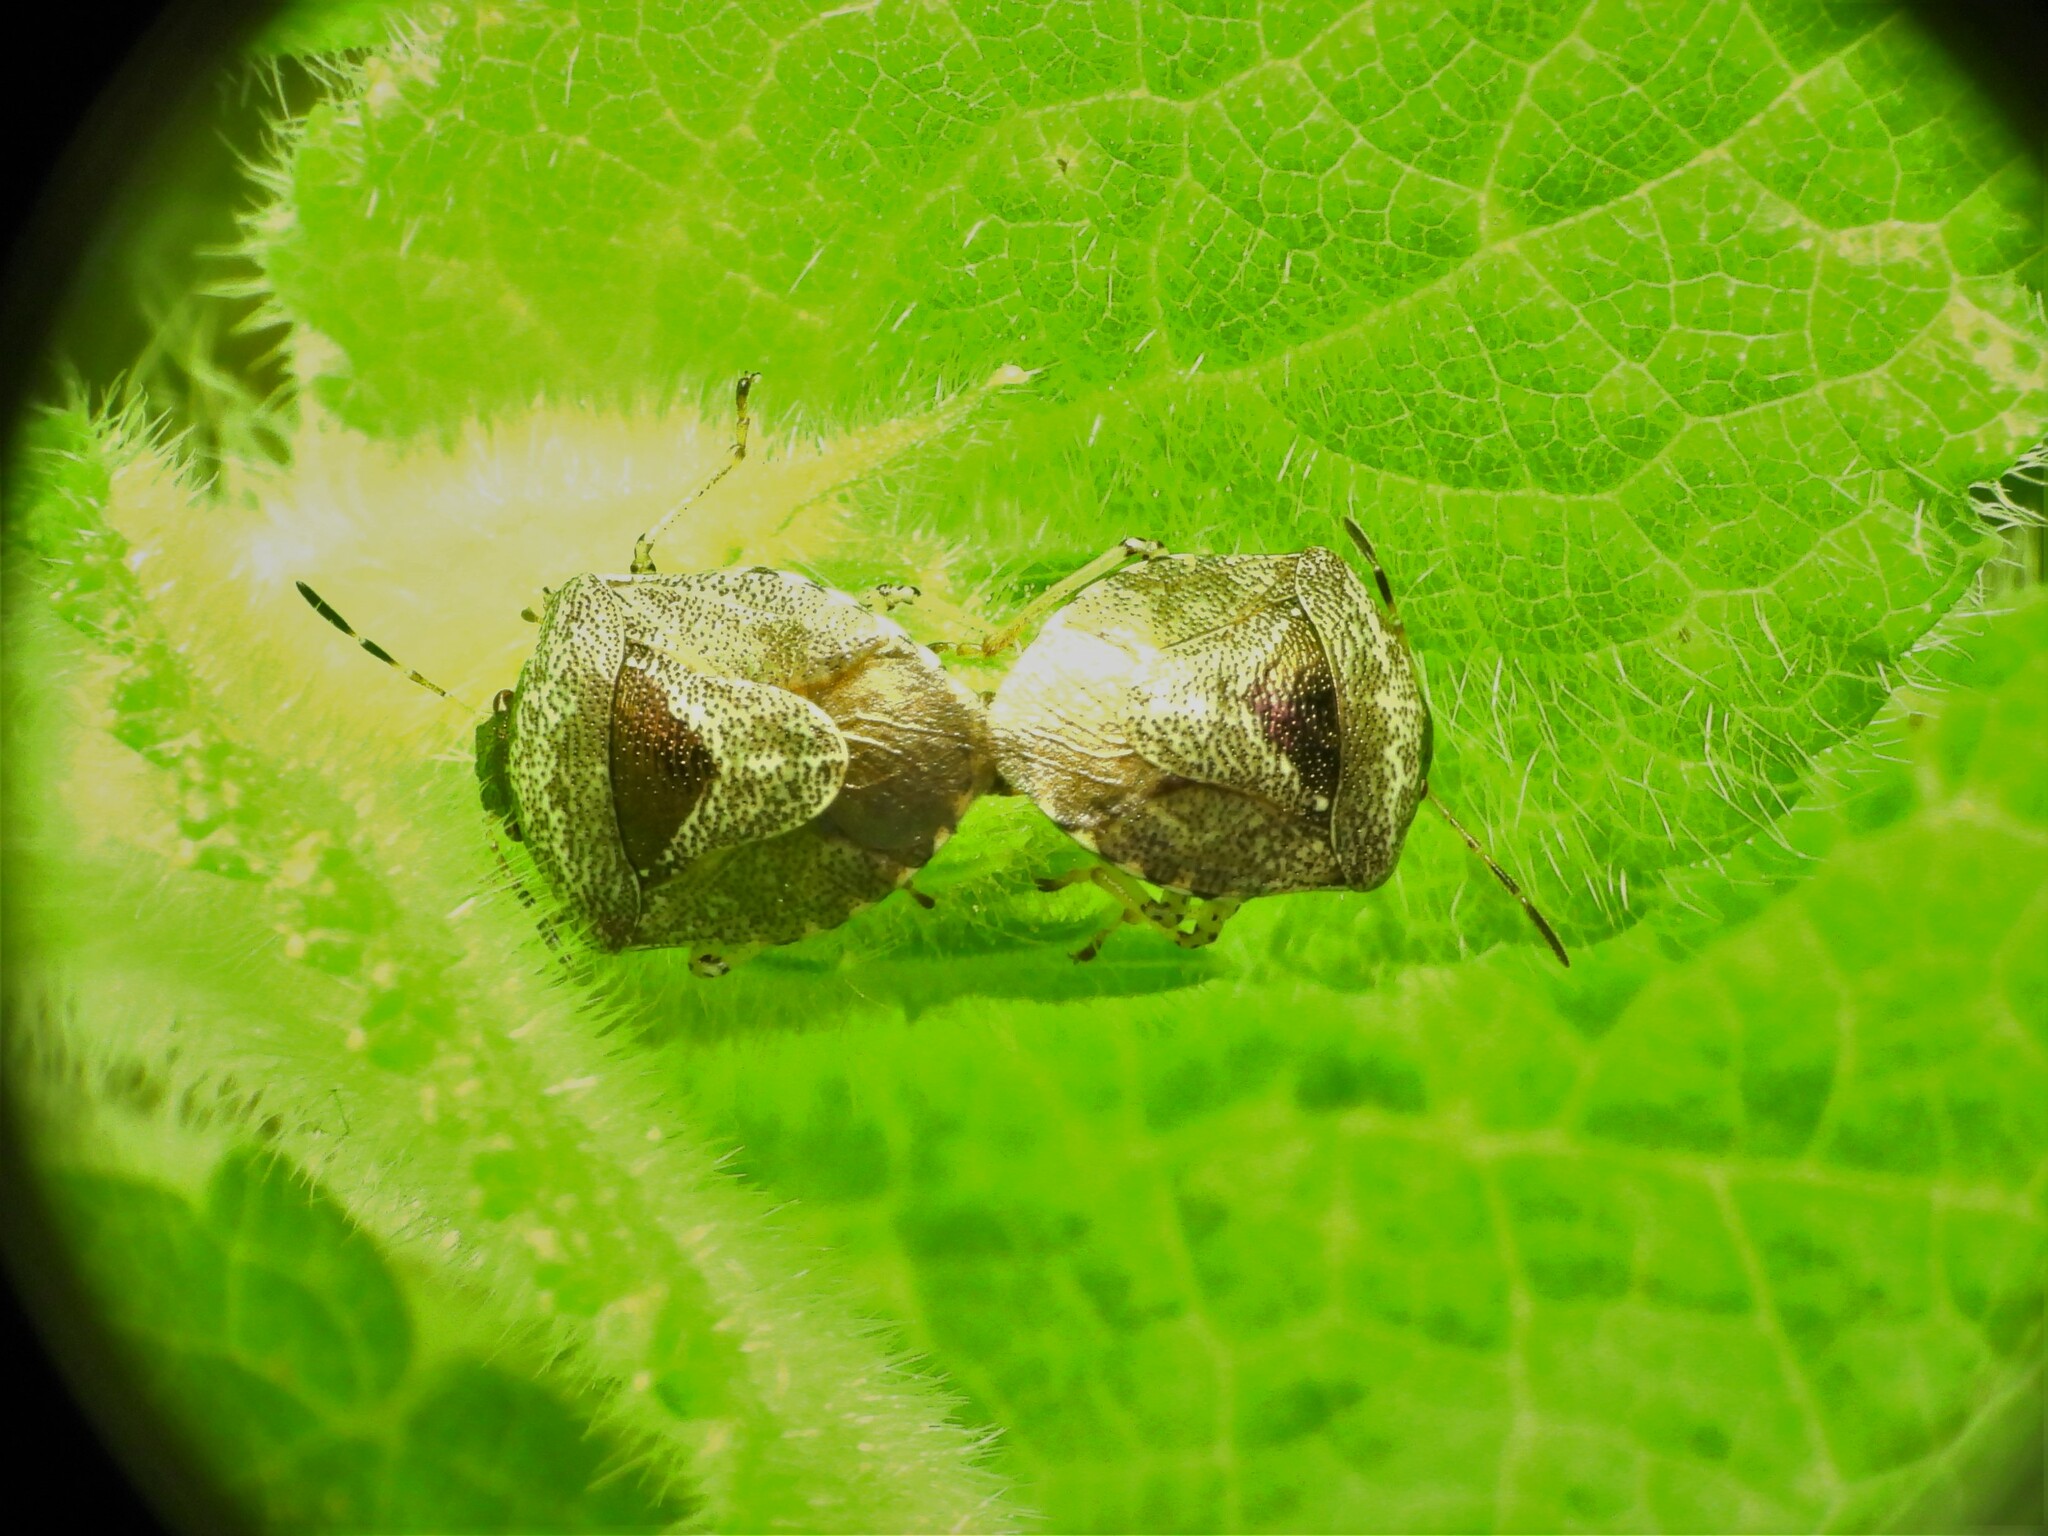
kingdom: Animalia
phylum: Arthropoda
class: Insecta
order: Hemiptera
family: Pentatomidae
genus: Eysarcoris
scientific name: Eysarcoris venustissimus
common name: Woundwort shieldbug
